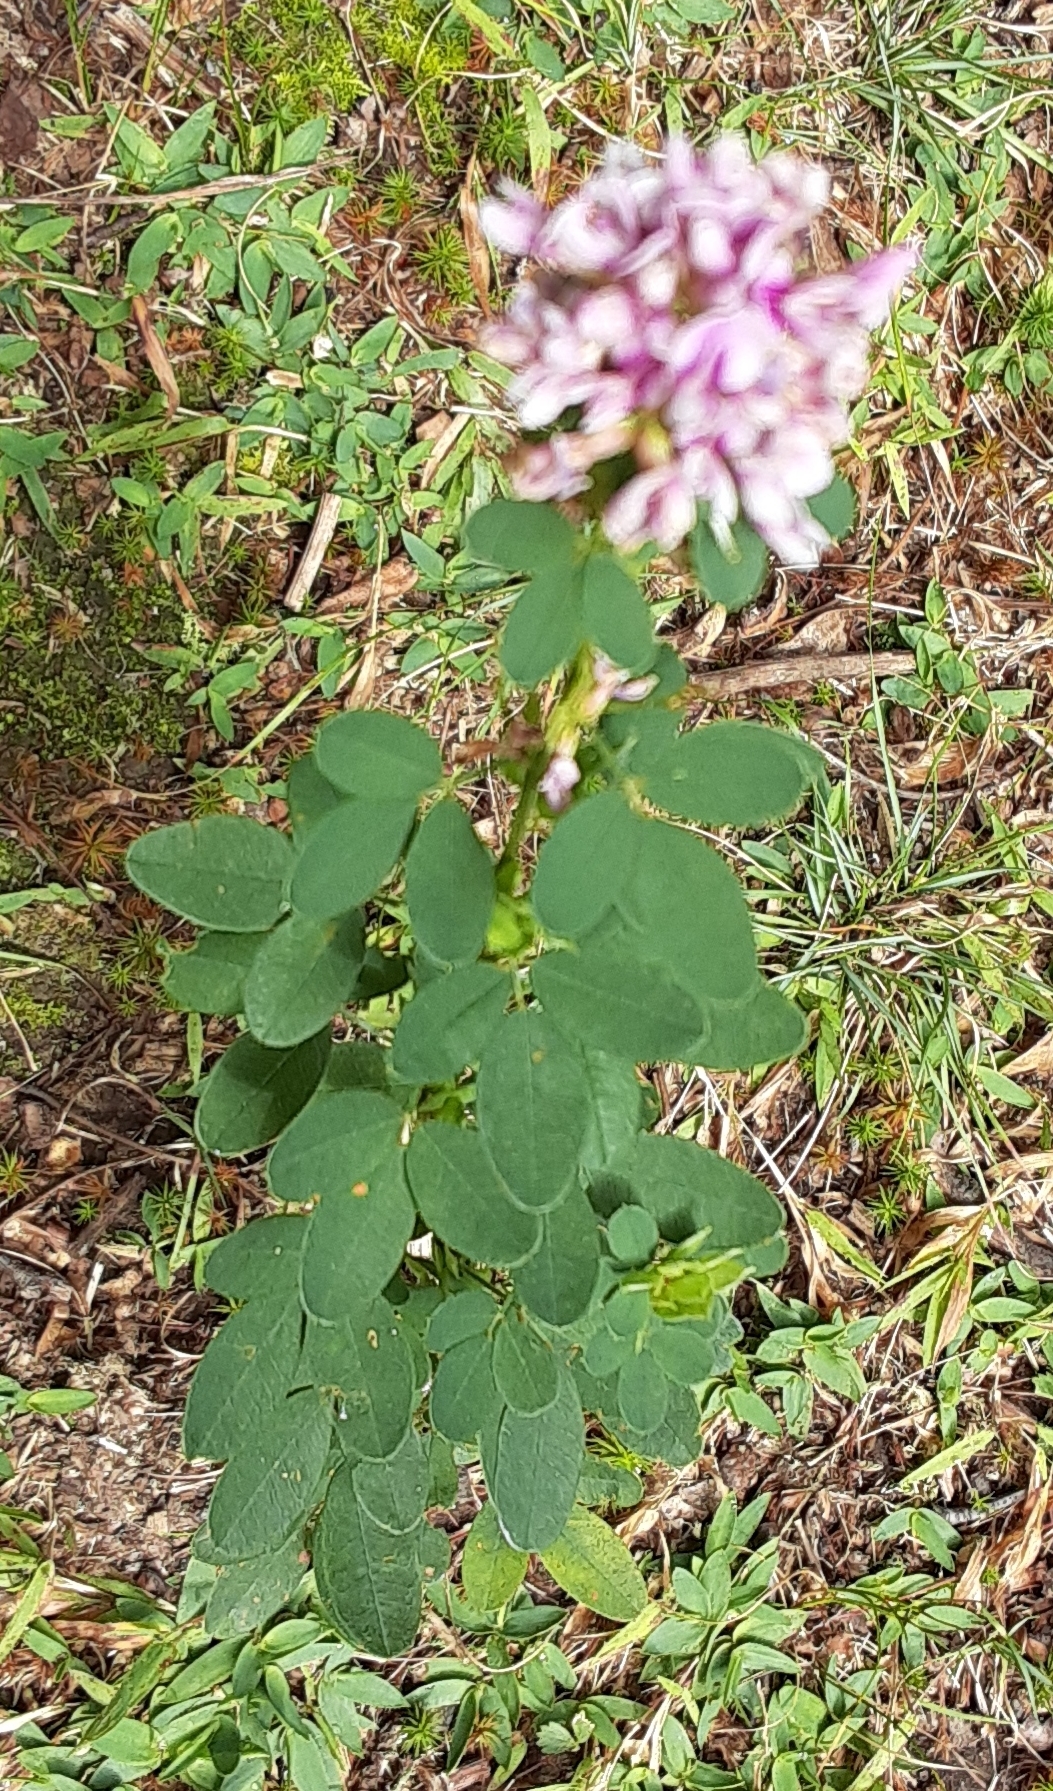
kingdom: Plantae
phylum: Tracheophyta
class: Magnoliopsida
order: Fabales
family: Fabaceae
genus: Lespedeza
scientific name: Lespedeza violacea
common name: Wand bush-clover
